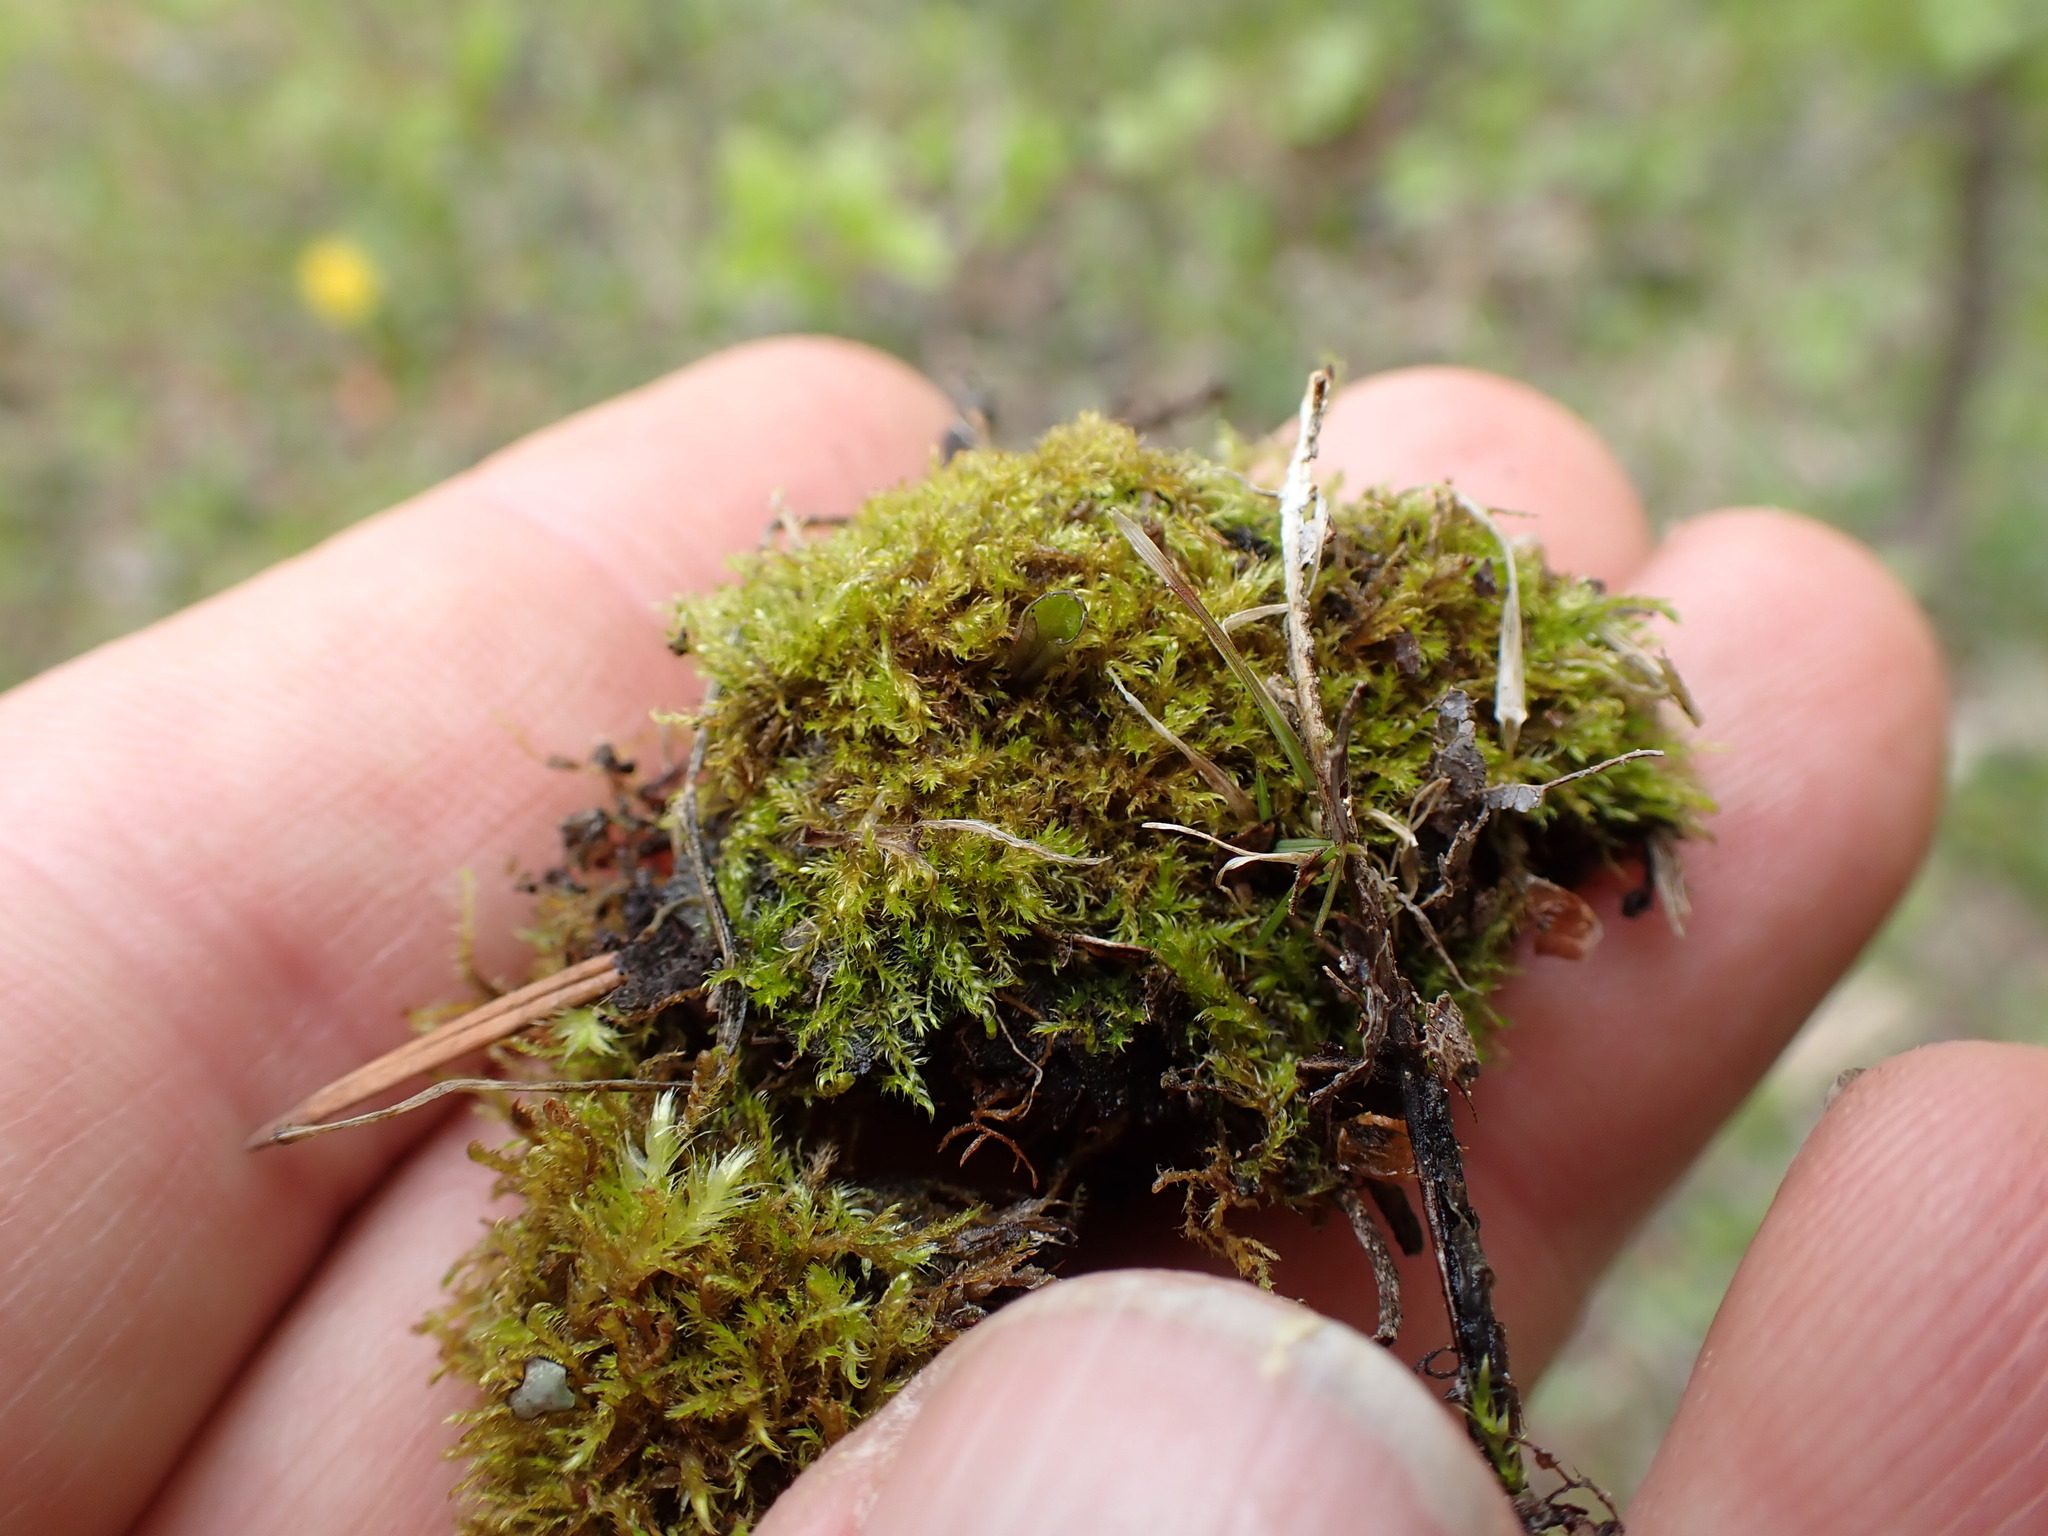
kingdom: Plantae
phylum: Bryophyta
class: Bryopsida
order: Hypnales
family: Amblystegiaceae
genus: Drepanocladus
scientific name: Drepanocladus aduncus
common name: Knieff's hook moss
